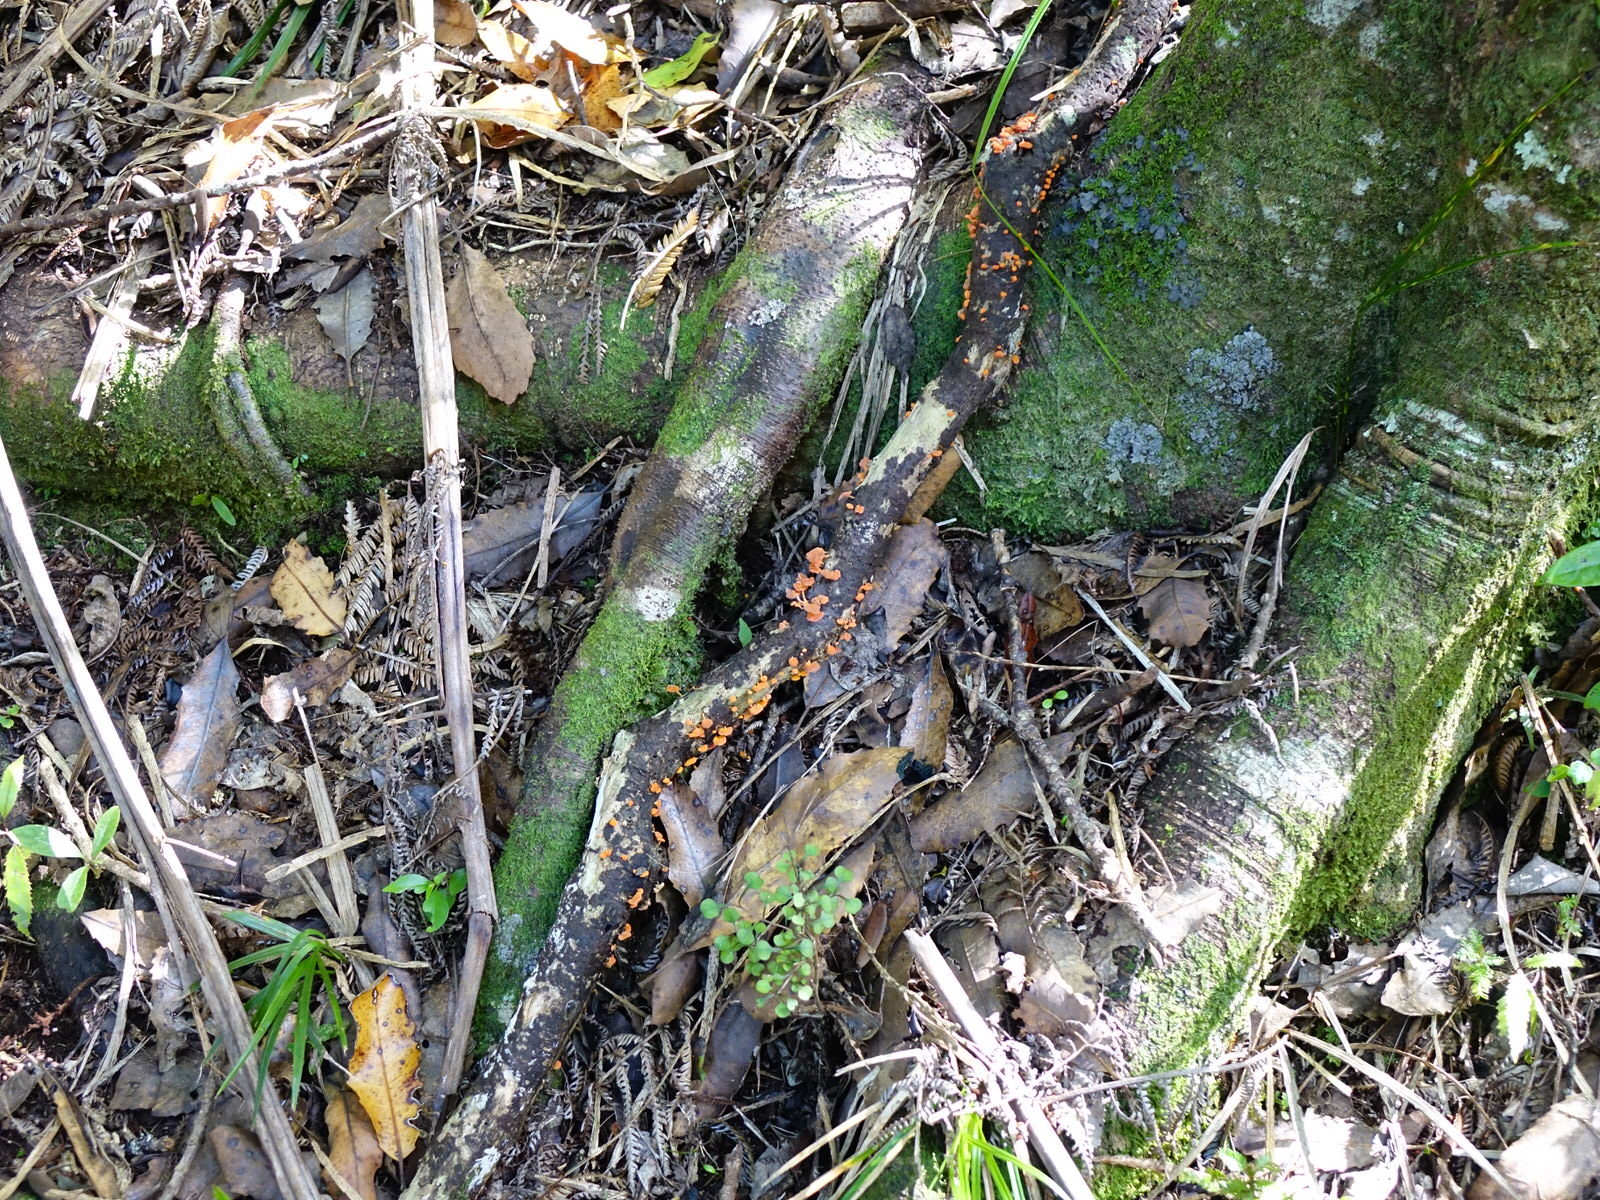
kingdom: Fungi
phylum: Basidiomycota
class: Agaricomycetes
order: Agaricales
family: Mycenaceae
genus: Favolaschia
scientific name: Favolaschia claudopus
